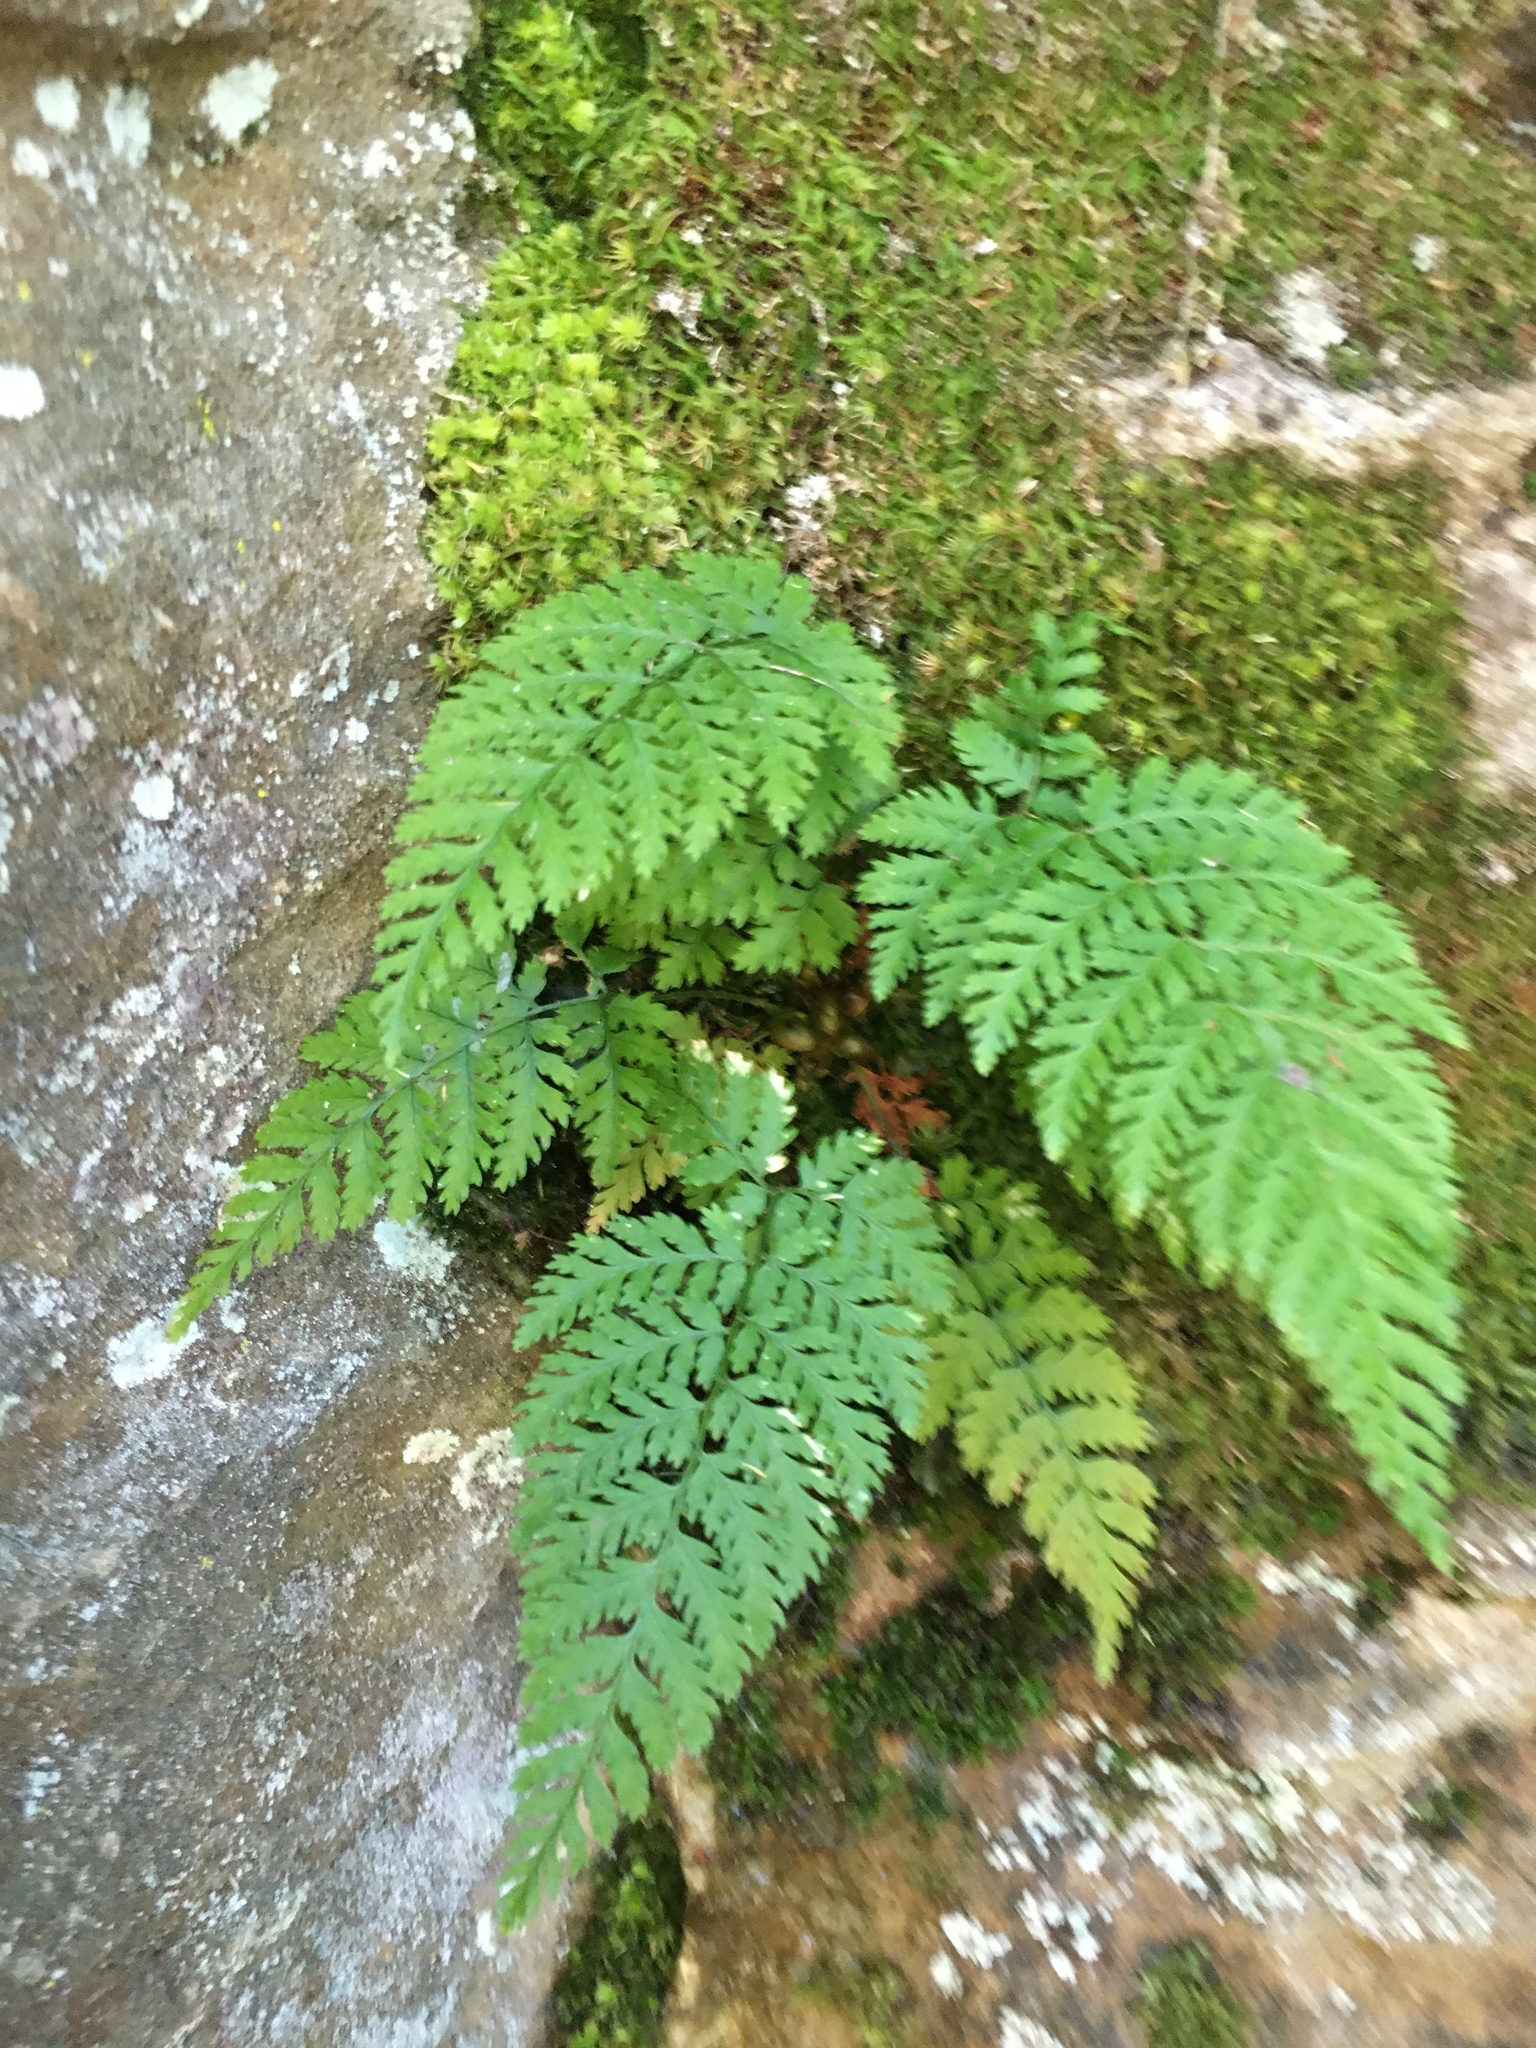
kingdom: Plantae
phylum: Tracheophyta
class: Polypodiopsida
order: Polypodiales
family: Dryopteridaceae
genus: Dryopteris
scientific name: Dryopteris intermedia
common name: Evergreen wood fern
